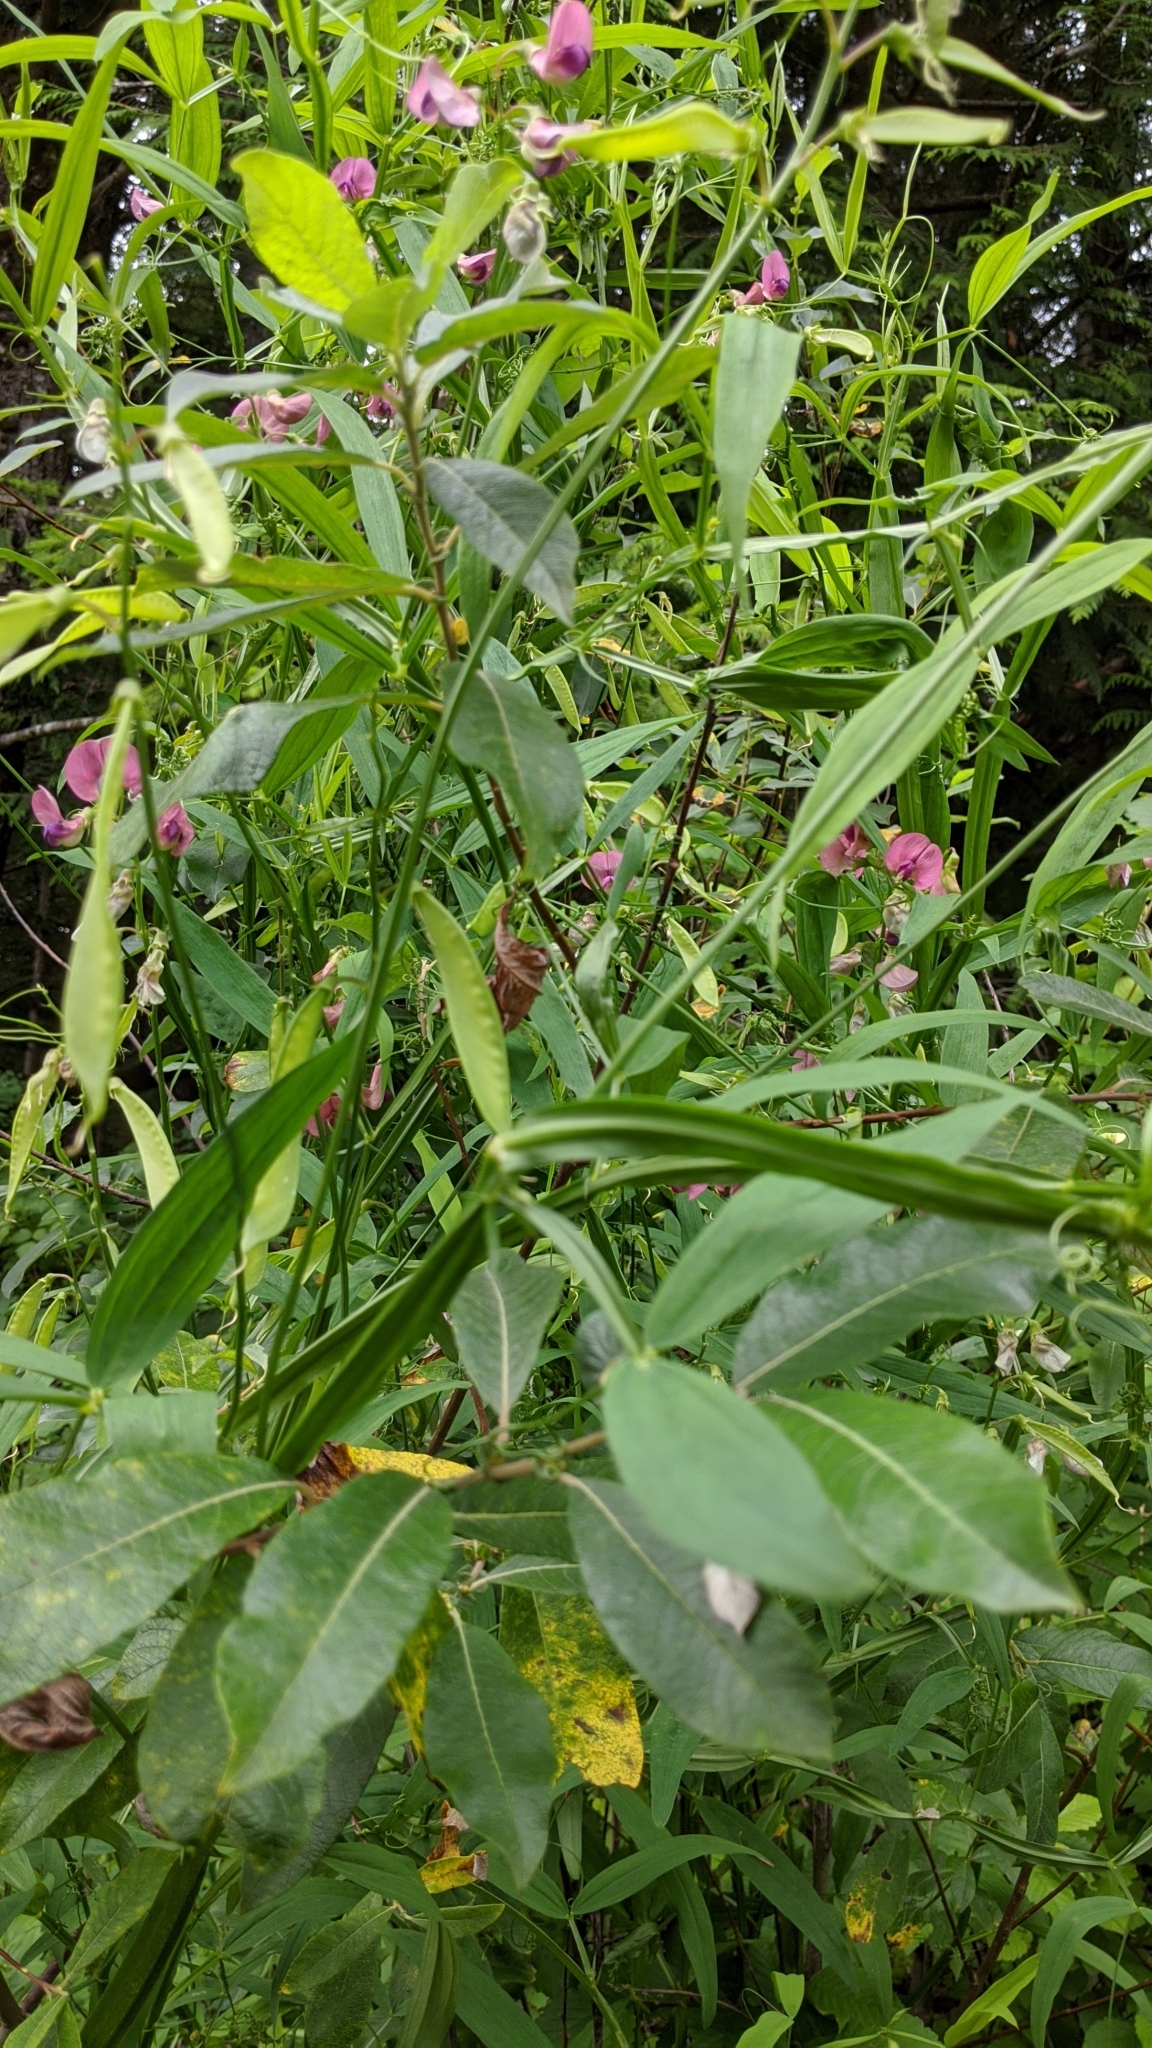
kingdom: Plantae
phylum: Tracheophyta
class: Magnoliopsida
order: Fabales
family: Fabaceae
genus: Lathyrus
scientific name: Lathyrus sylvestris
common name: Flat pea
